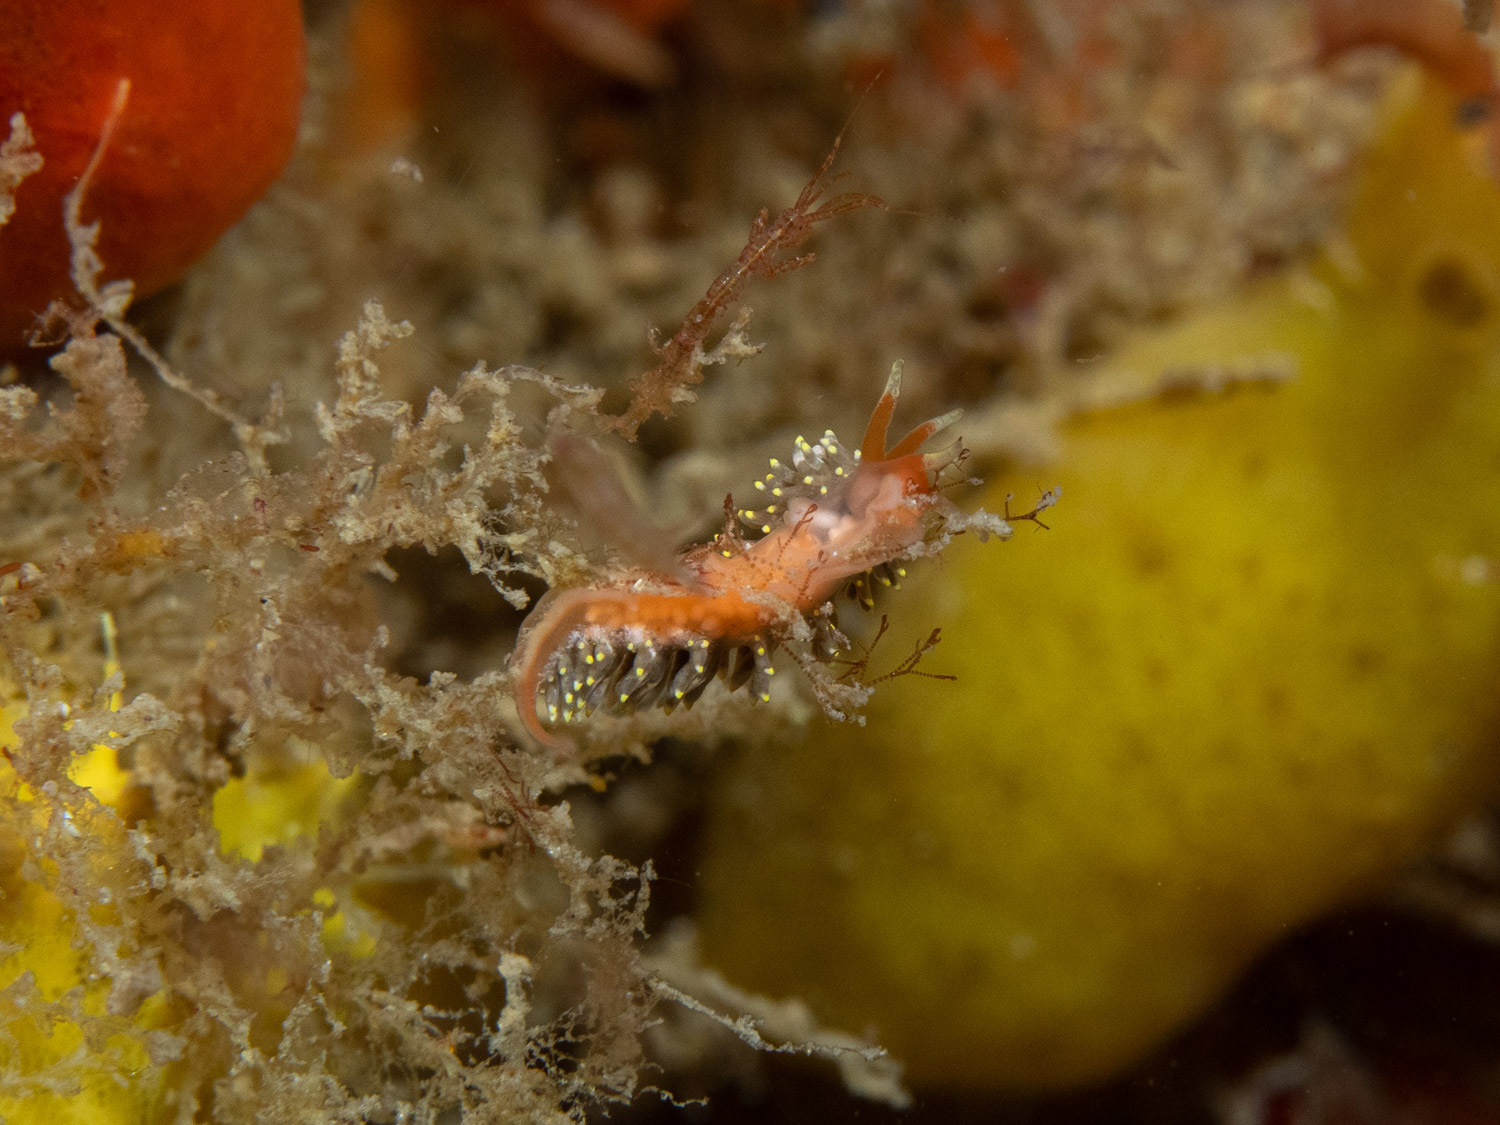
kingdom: Animalia
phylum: Mollusca
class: Gastropoda
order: Nudibranchia
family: Trinchesiidae
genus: Trinchesia
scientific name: Trinchesia catachroma
